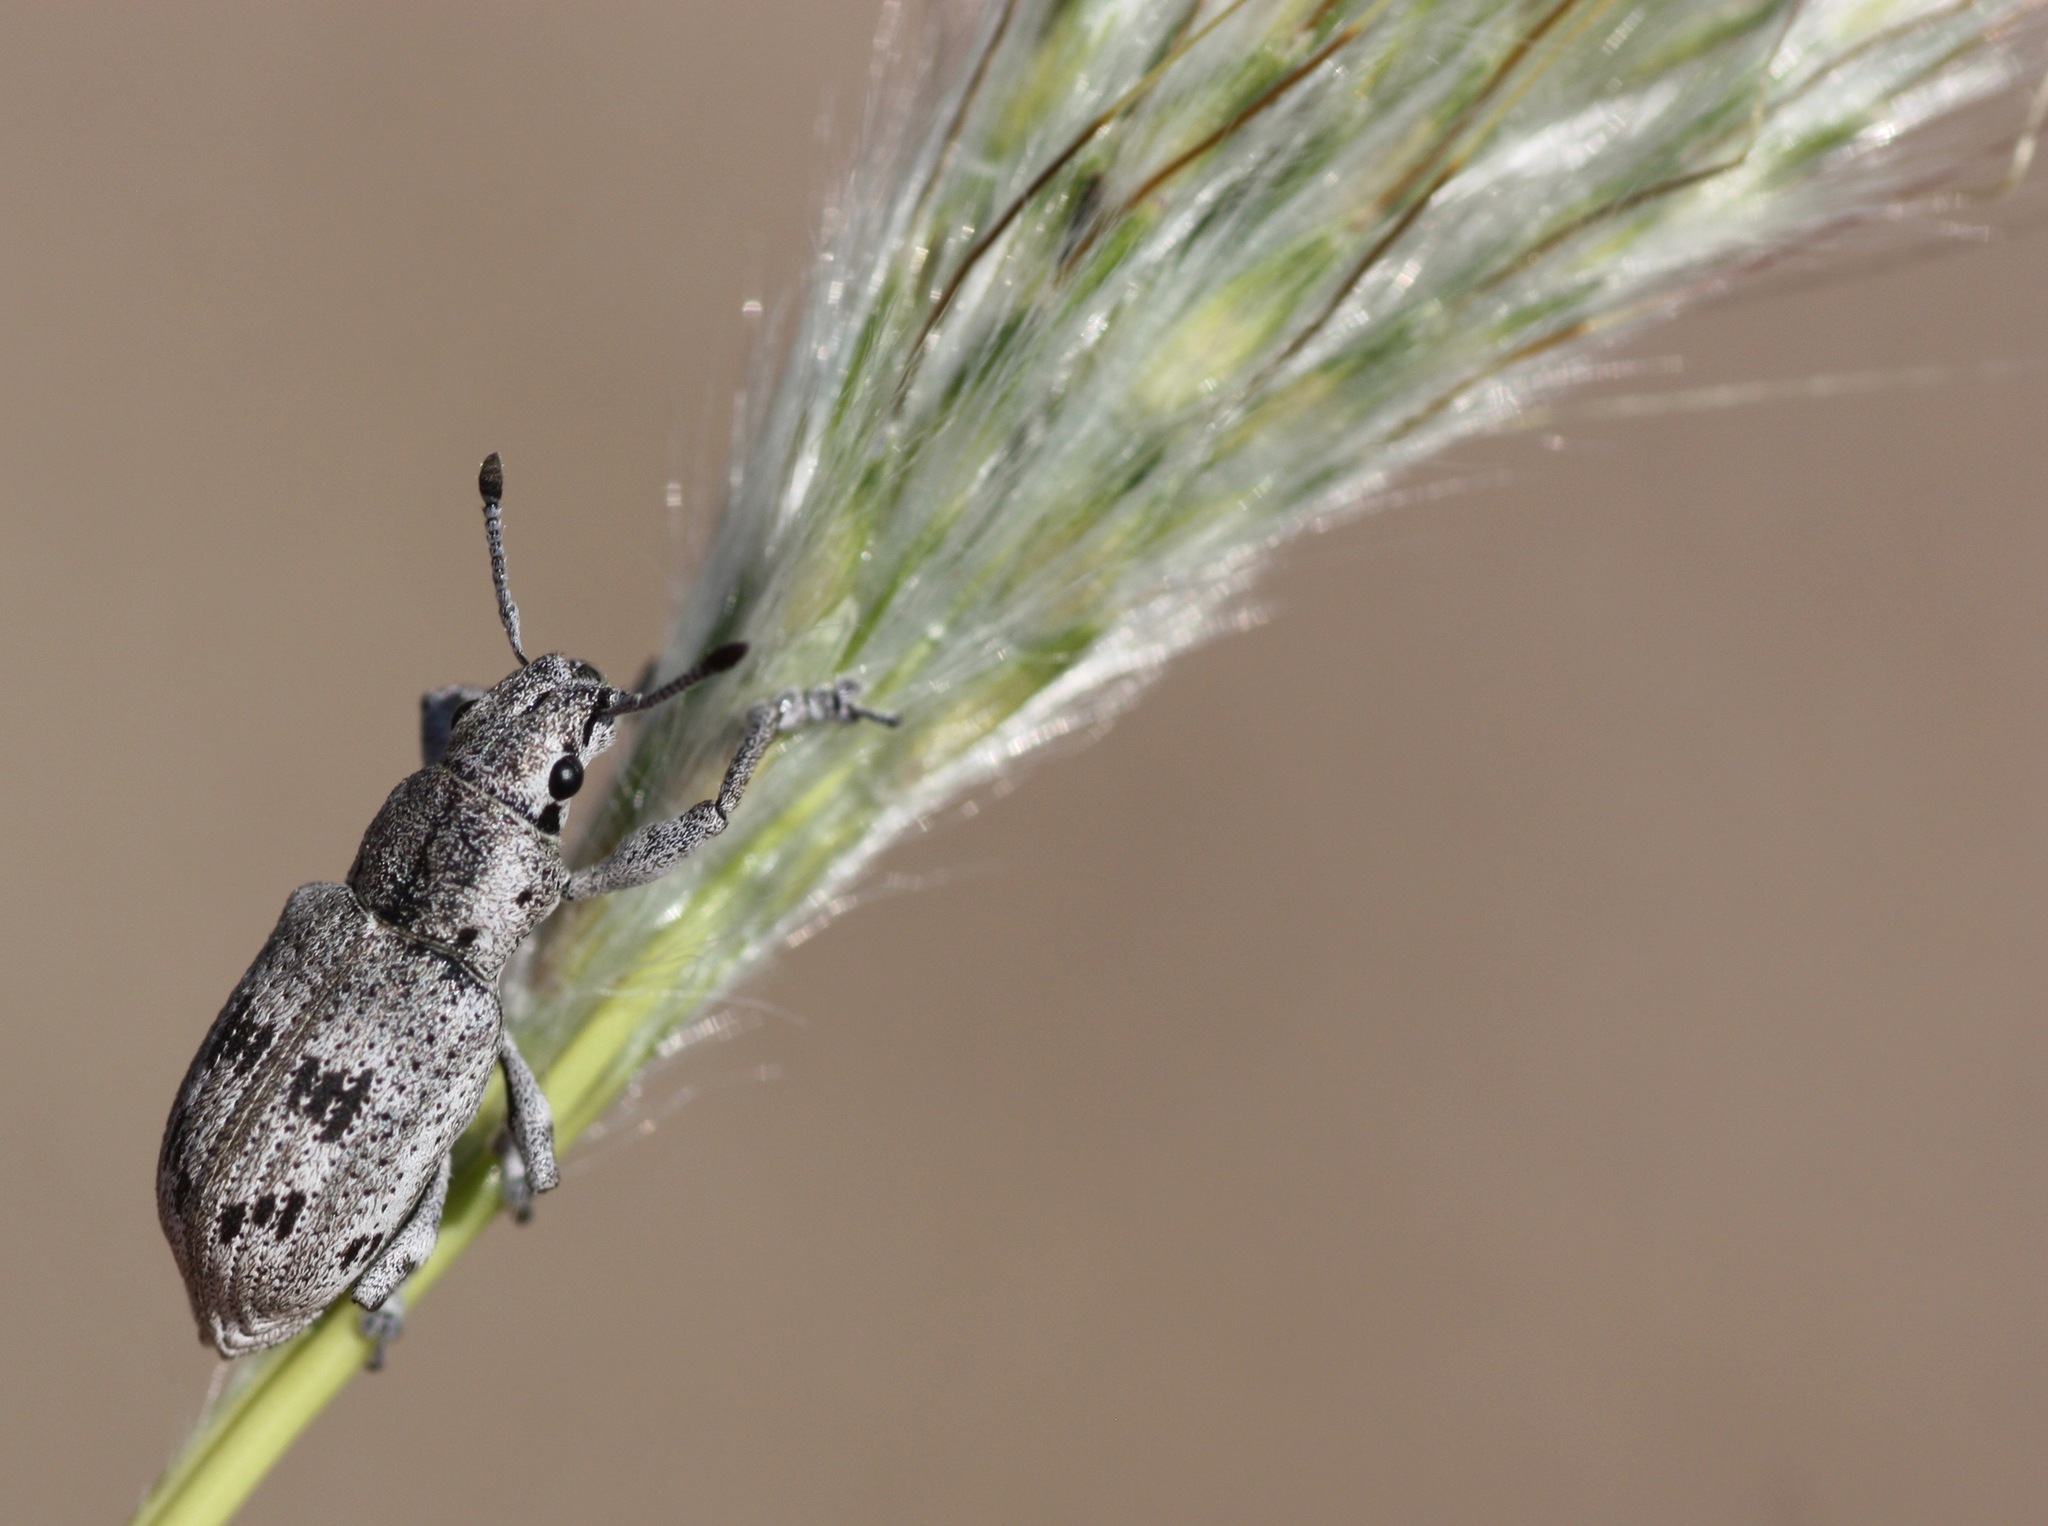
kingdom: Animalia
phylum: Arthropoda
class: Insecta
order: Coleoptera
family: Curculionidae
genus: Ericydeus
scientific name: Ericydeus lautus
